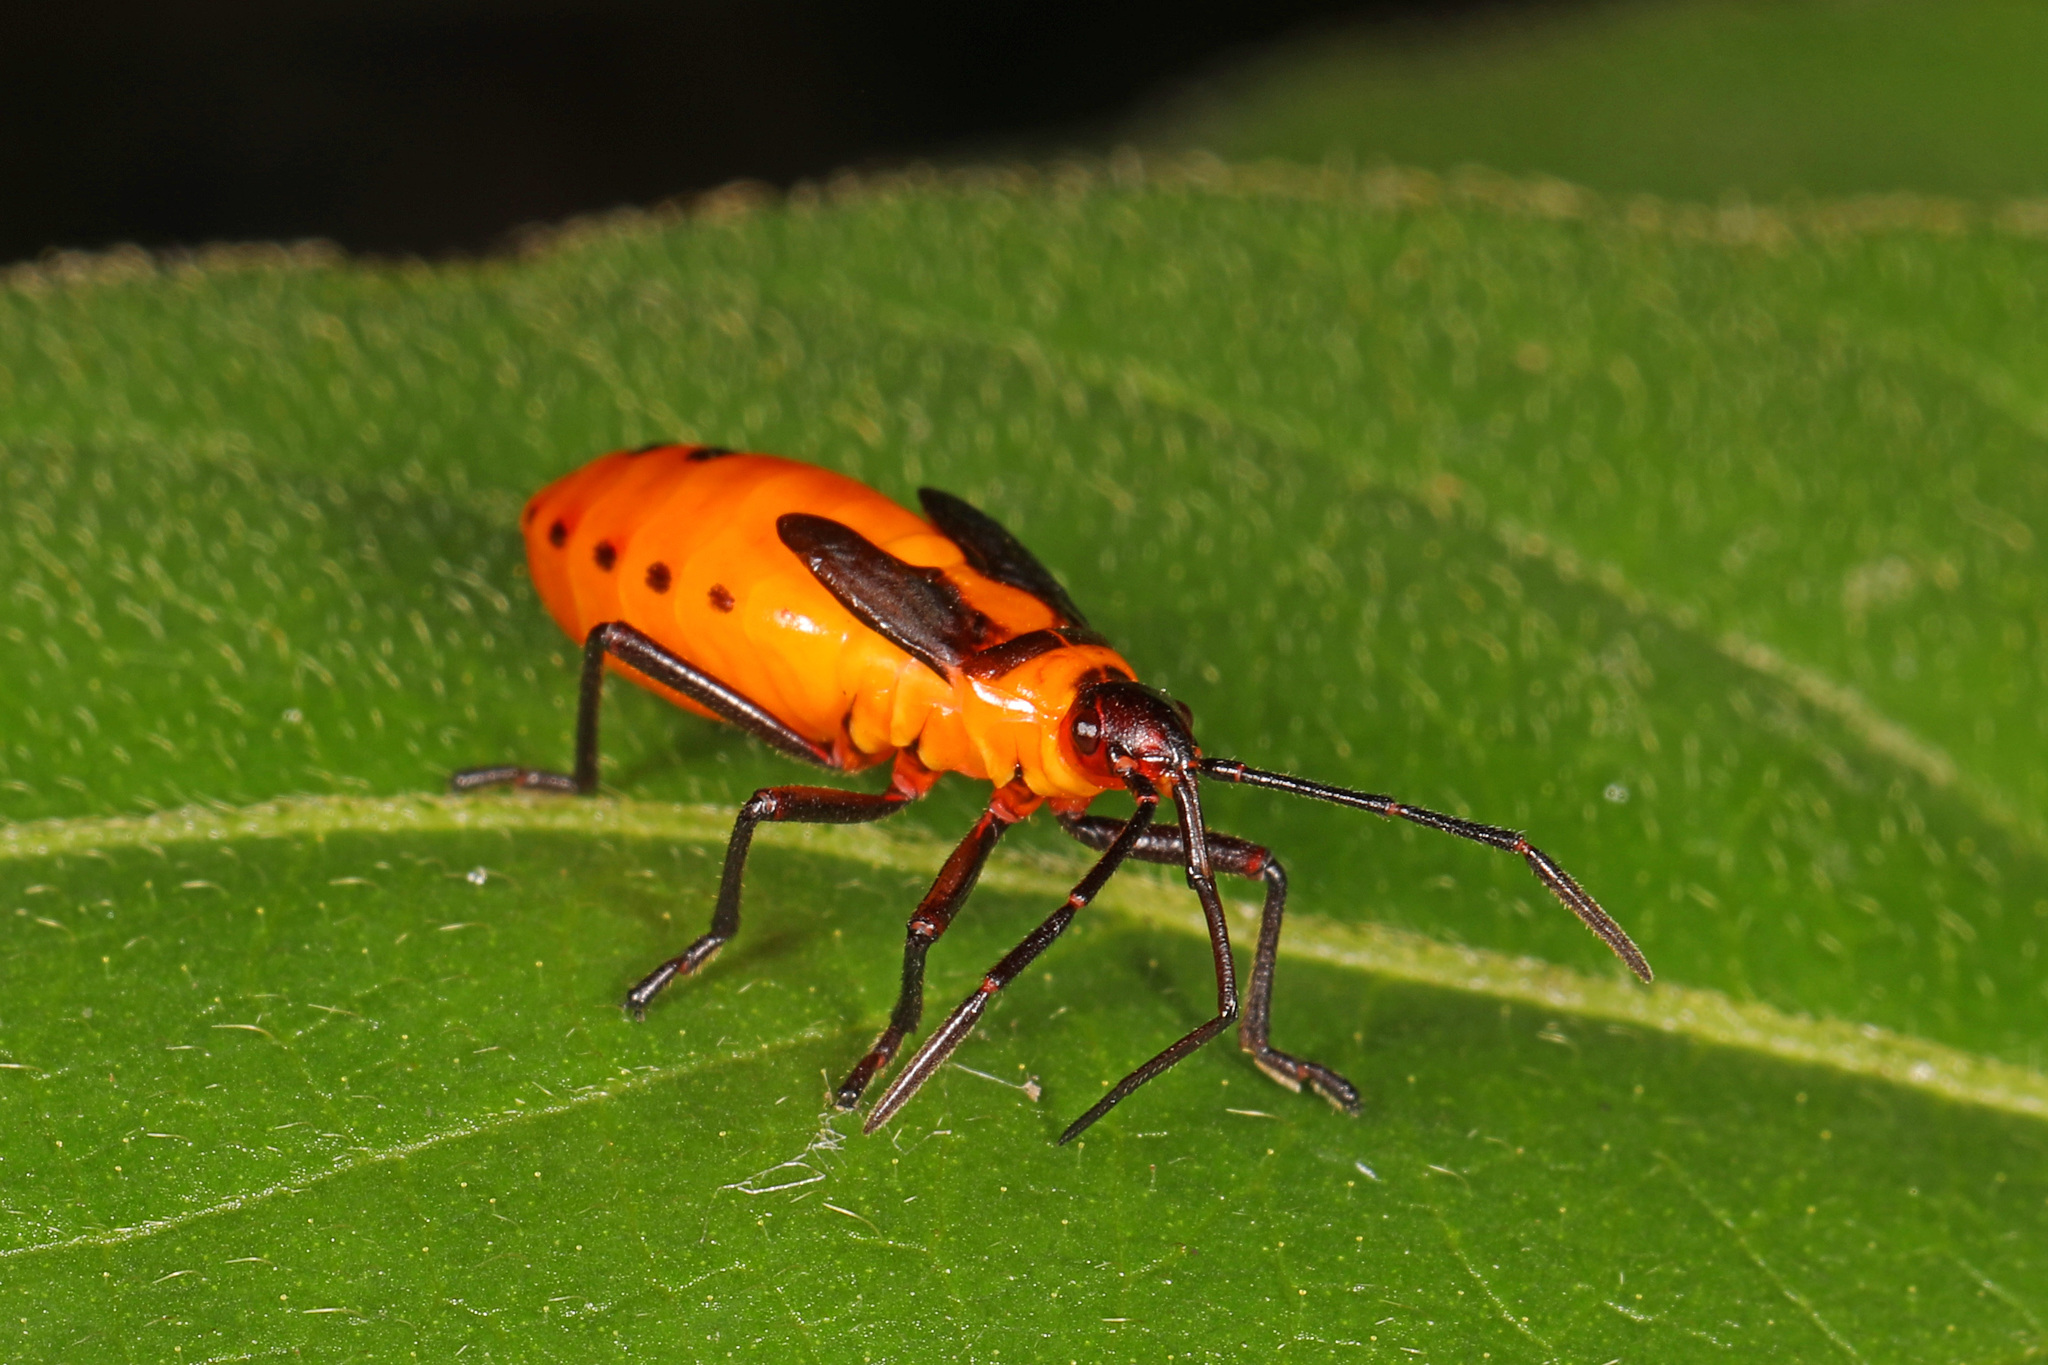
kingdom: Animalia
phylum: Arthropoda
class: Insecta
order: Hemiptera
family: Lygaeidae
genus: Oncopeltus
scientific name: Oncopeltus fasciatus
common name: Large milkweed bug
